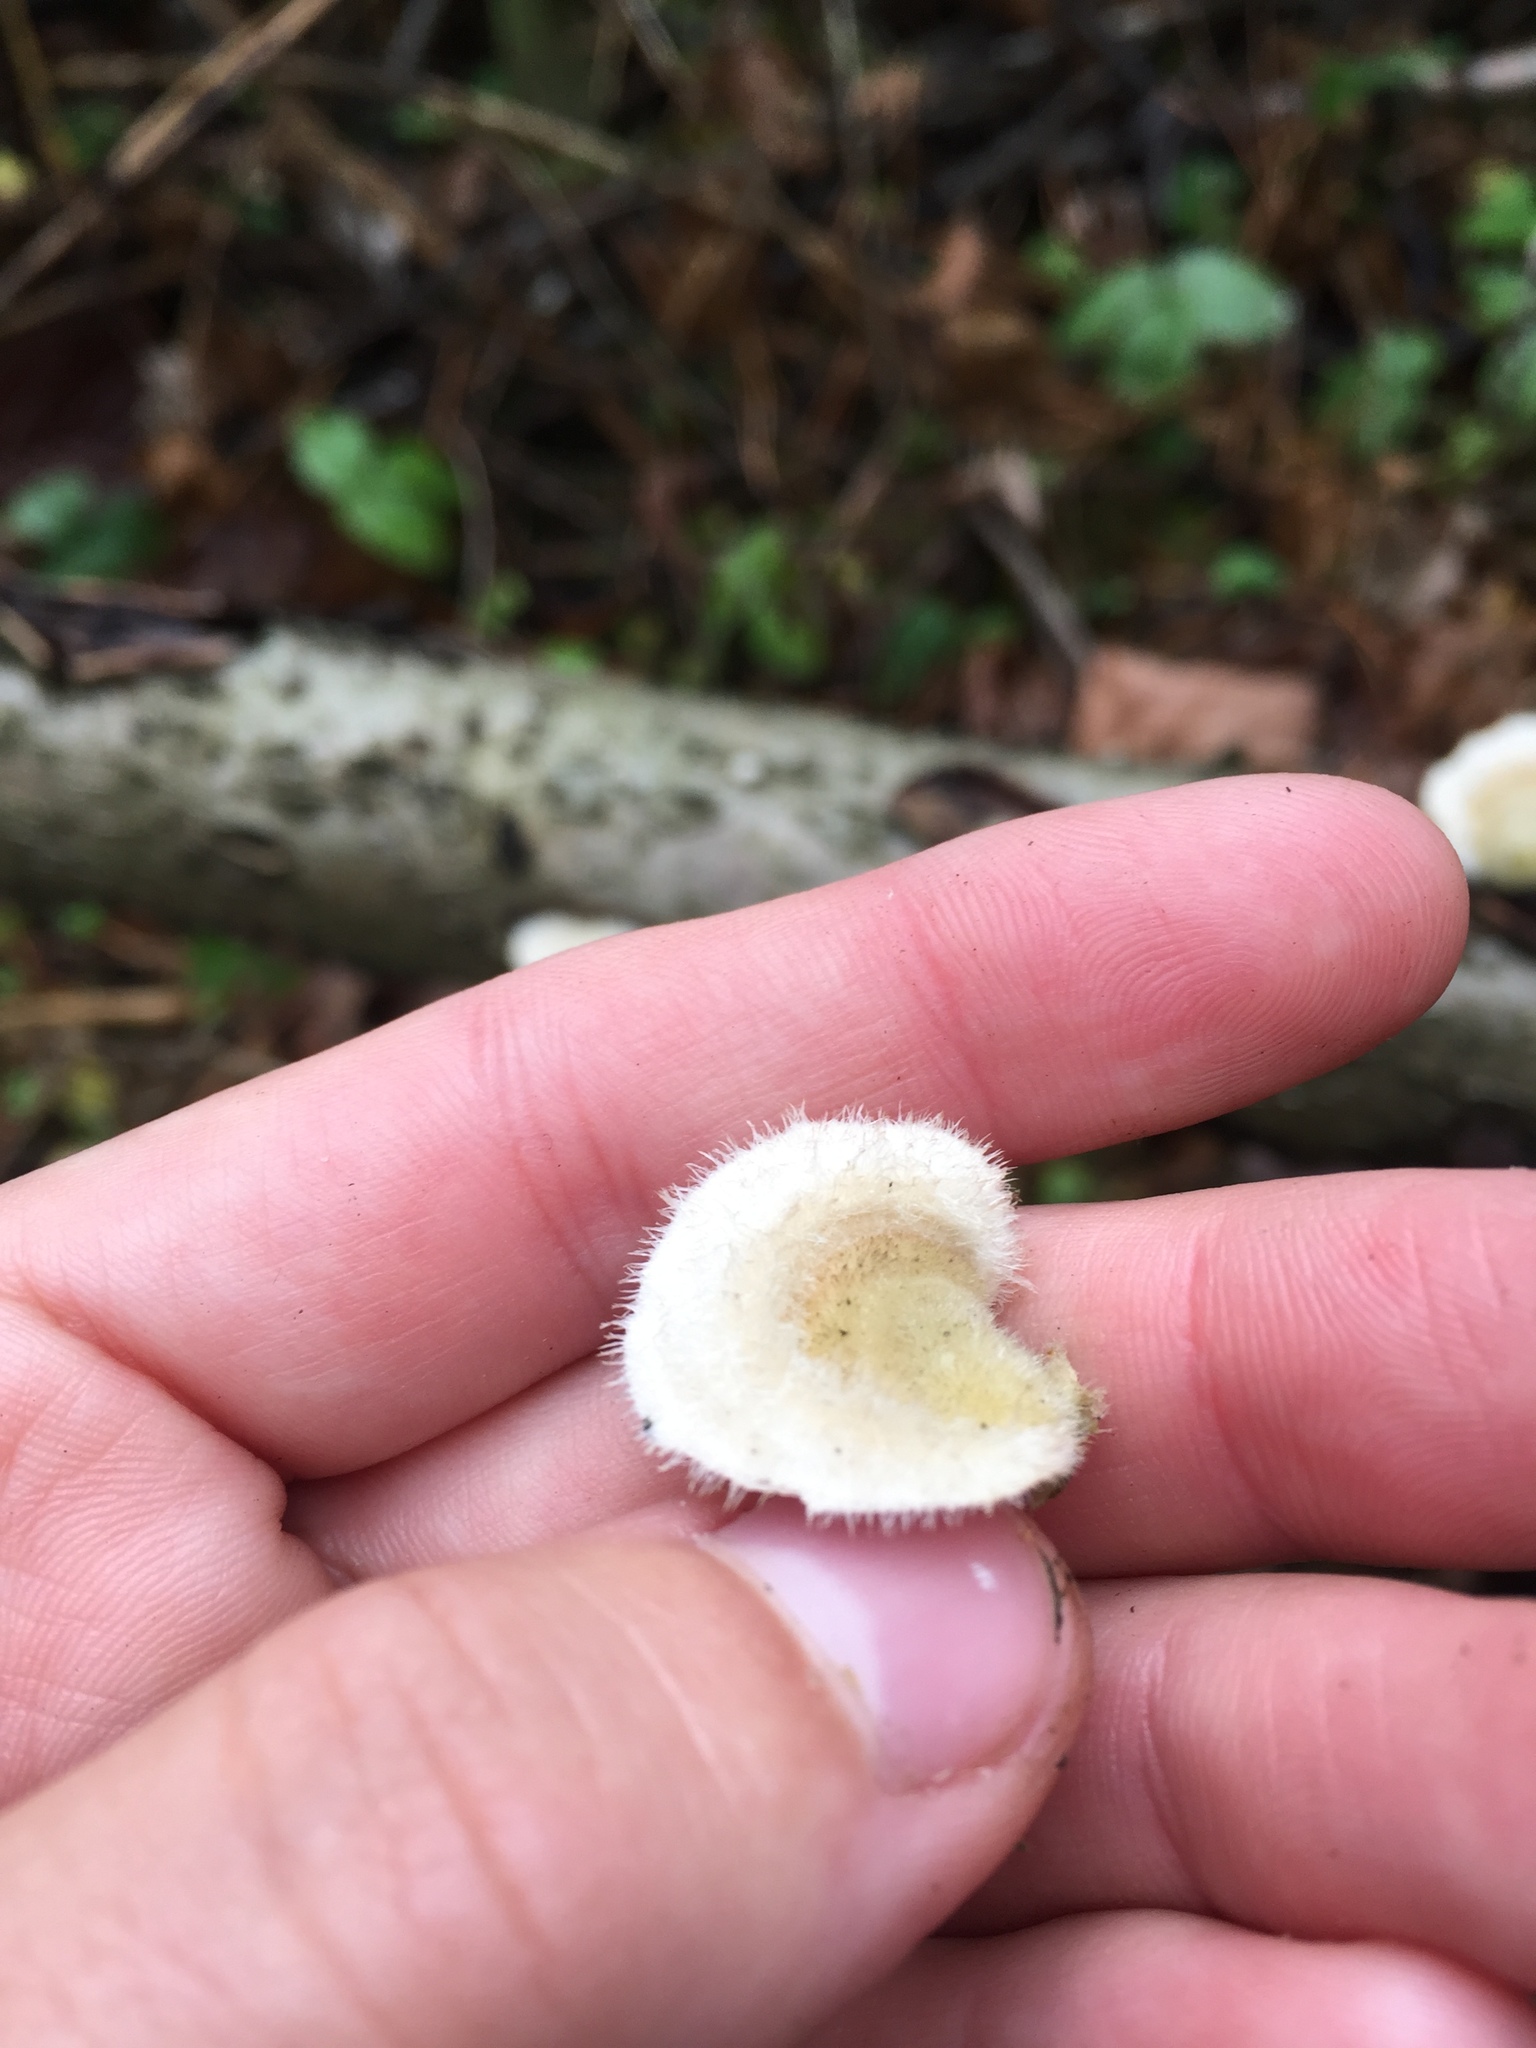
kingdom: Fungi
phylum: Basidiomycota
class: Agaricomycetes
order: Polyporales
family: Polyporaceae
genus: Trametes
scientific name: Trametes hirsuta
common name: Hairy bracket
